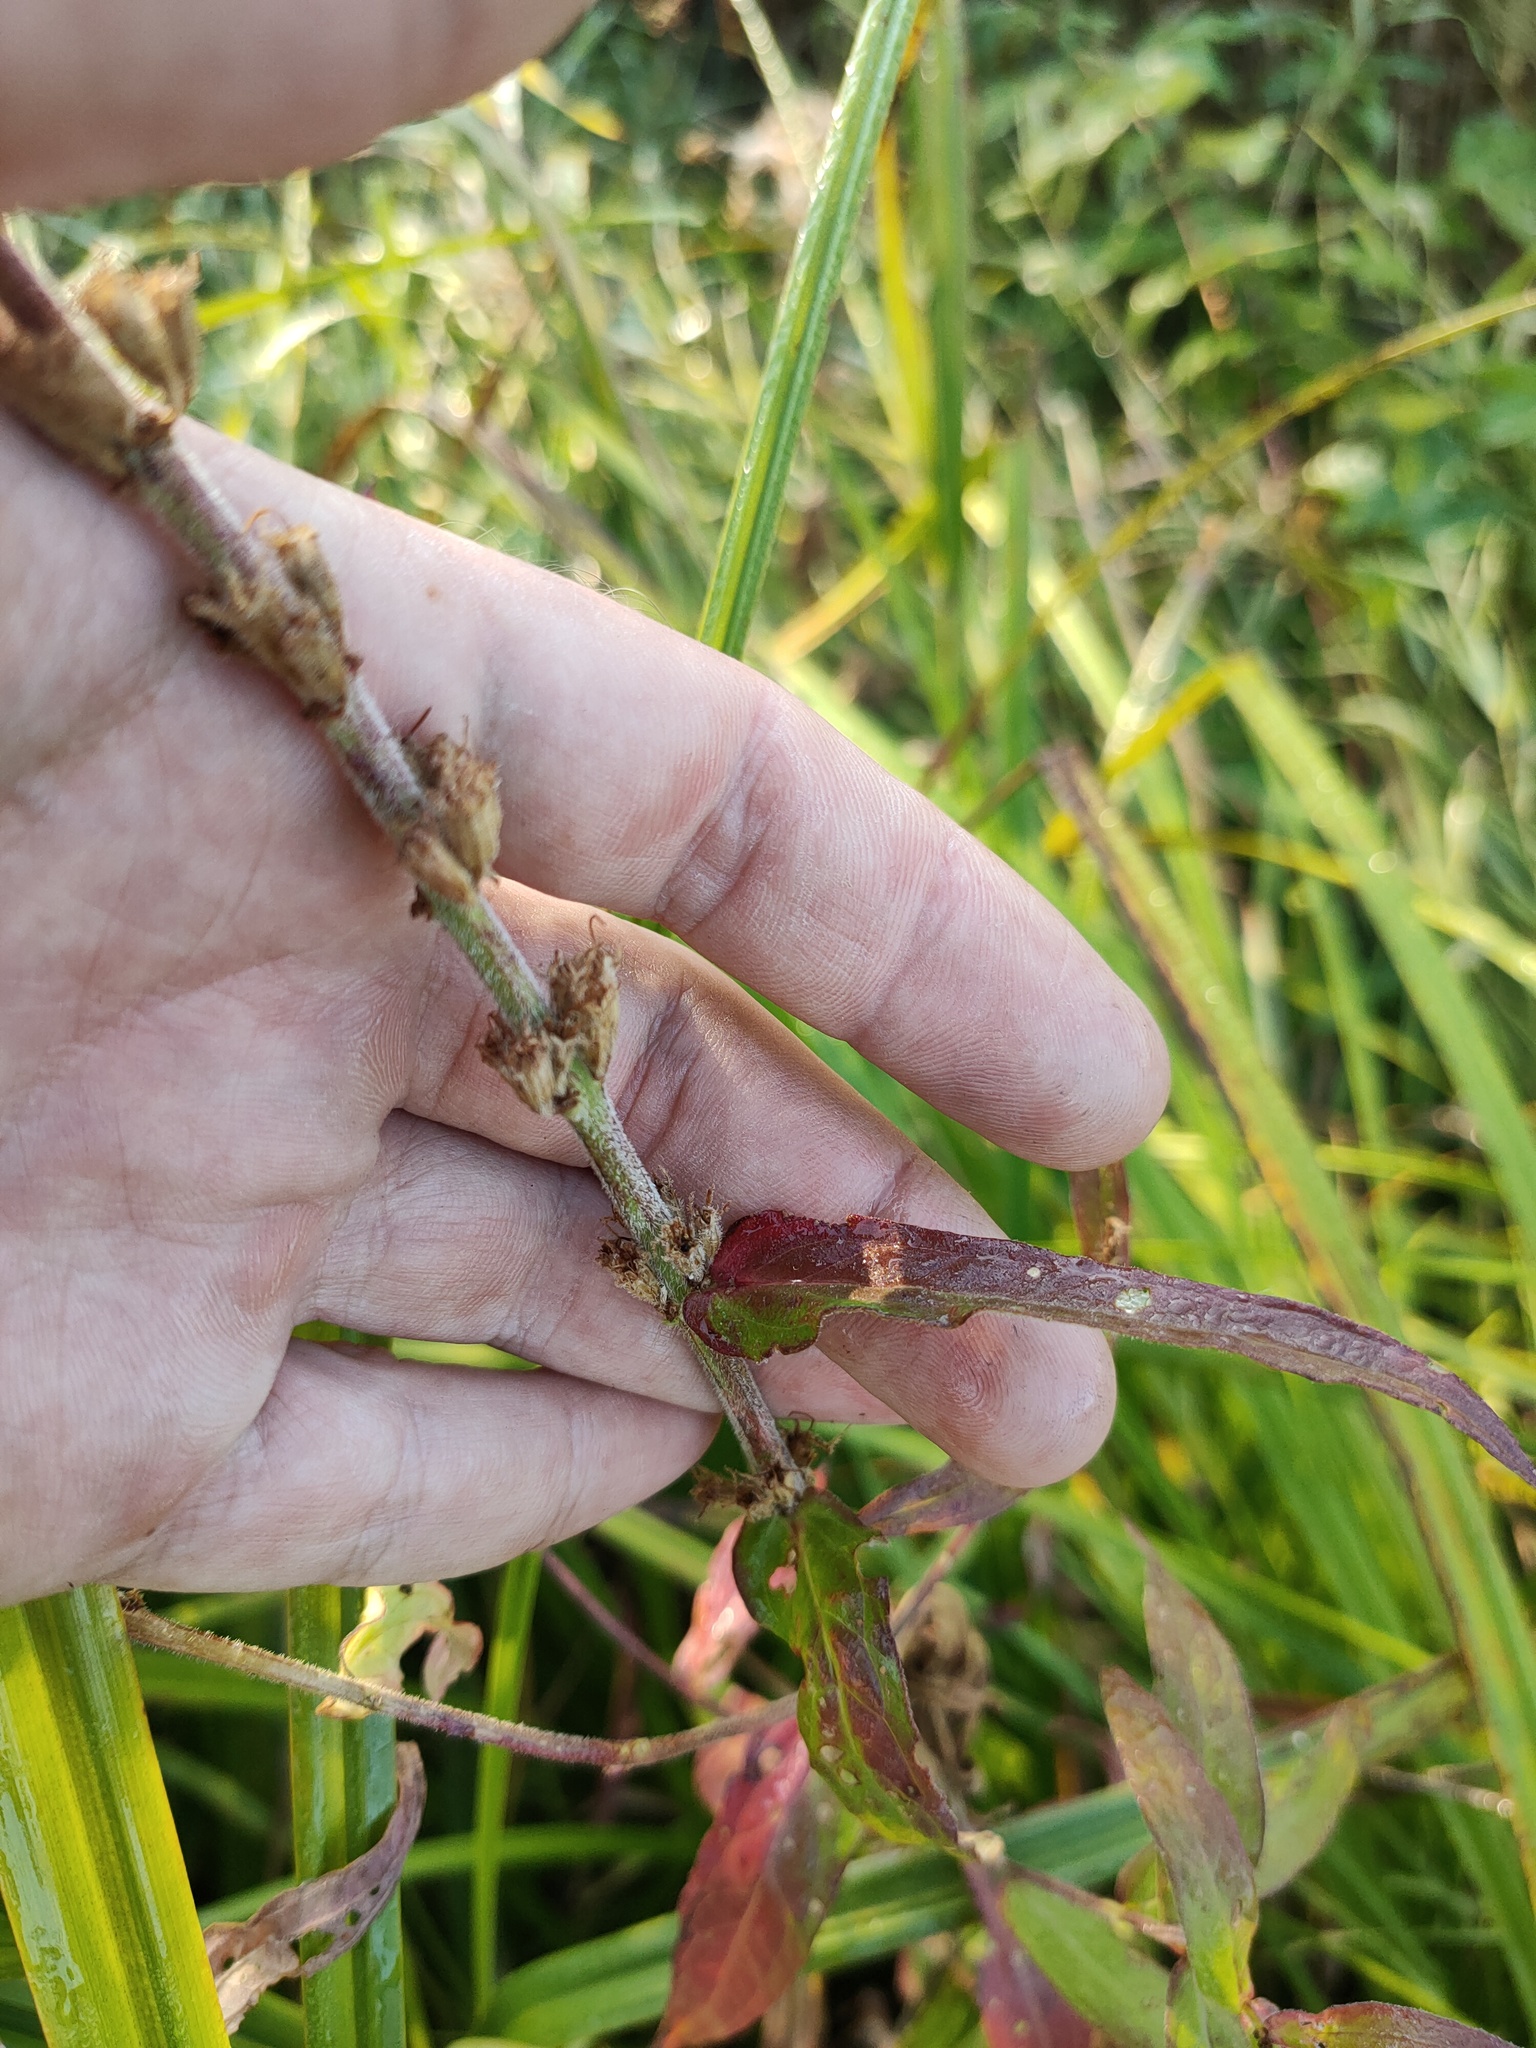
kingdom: Plantae
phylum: Tracheophyta
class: Magnoliopsida
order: Myrtales
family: Lythraceae
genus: Lythrum
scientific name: Lythrum salicaria
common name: Purple loosestrife
